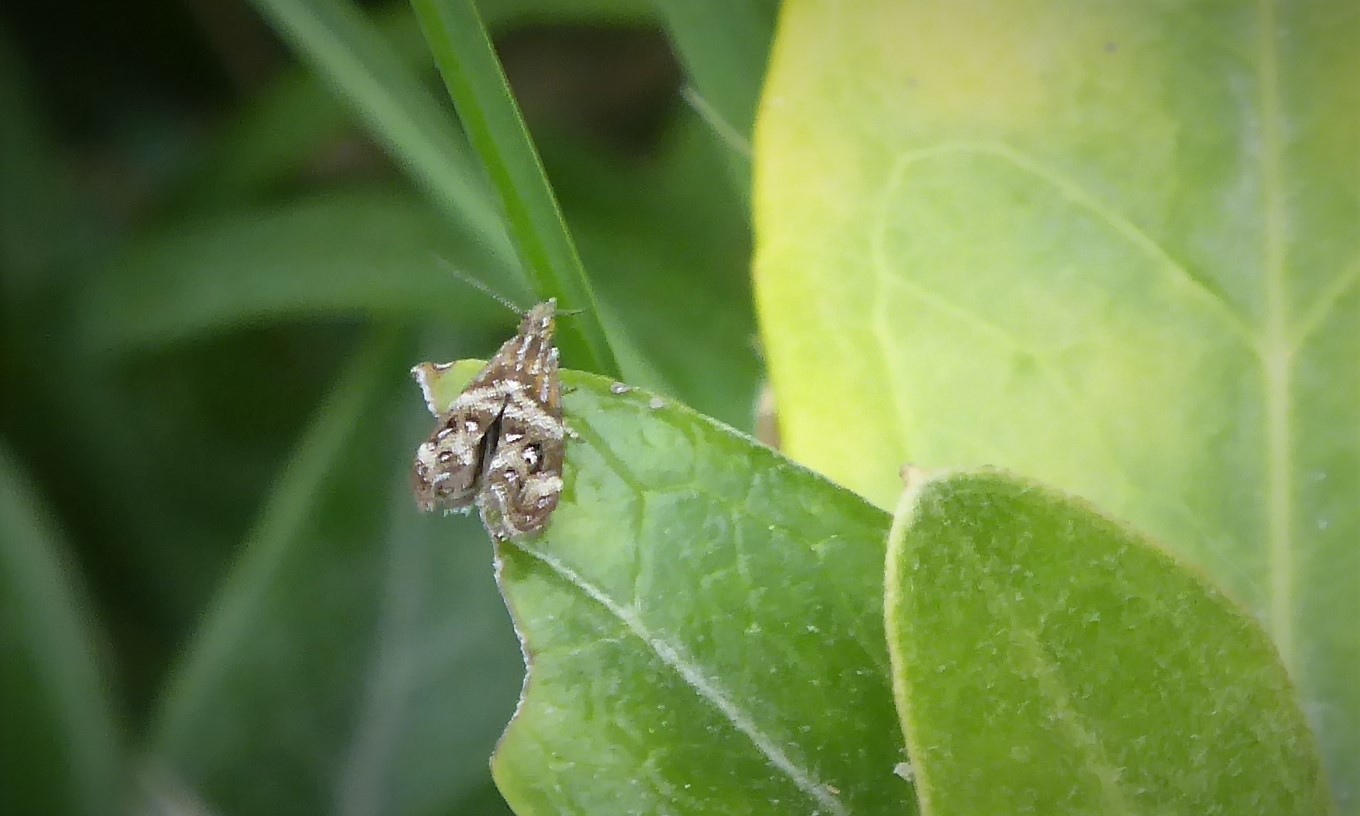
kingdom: Animalia
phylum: Arthropoda
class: Insecta
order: Lepidoptera
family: Choreutidae
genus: Tebenna
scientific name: Tebenna micalis
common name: Vagrant twitcher
